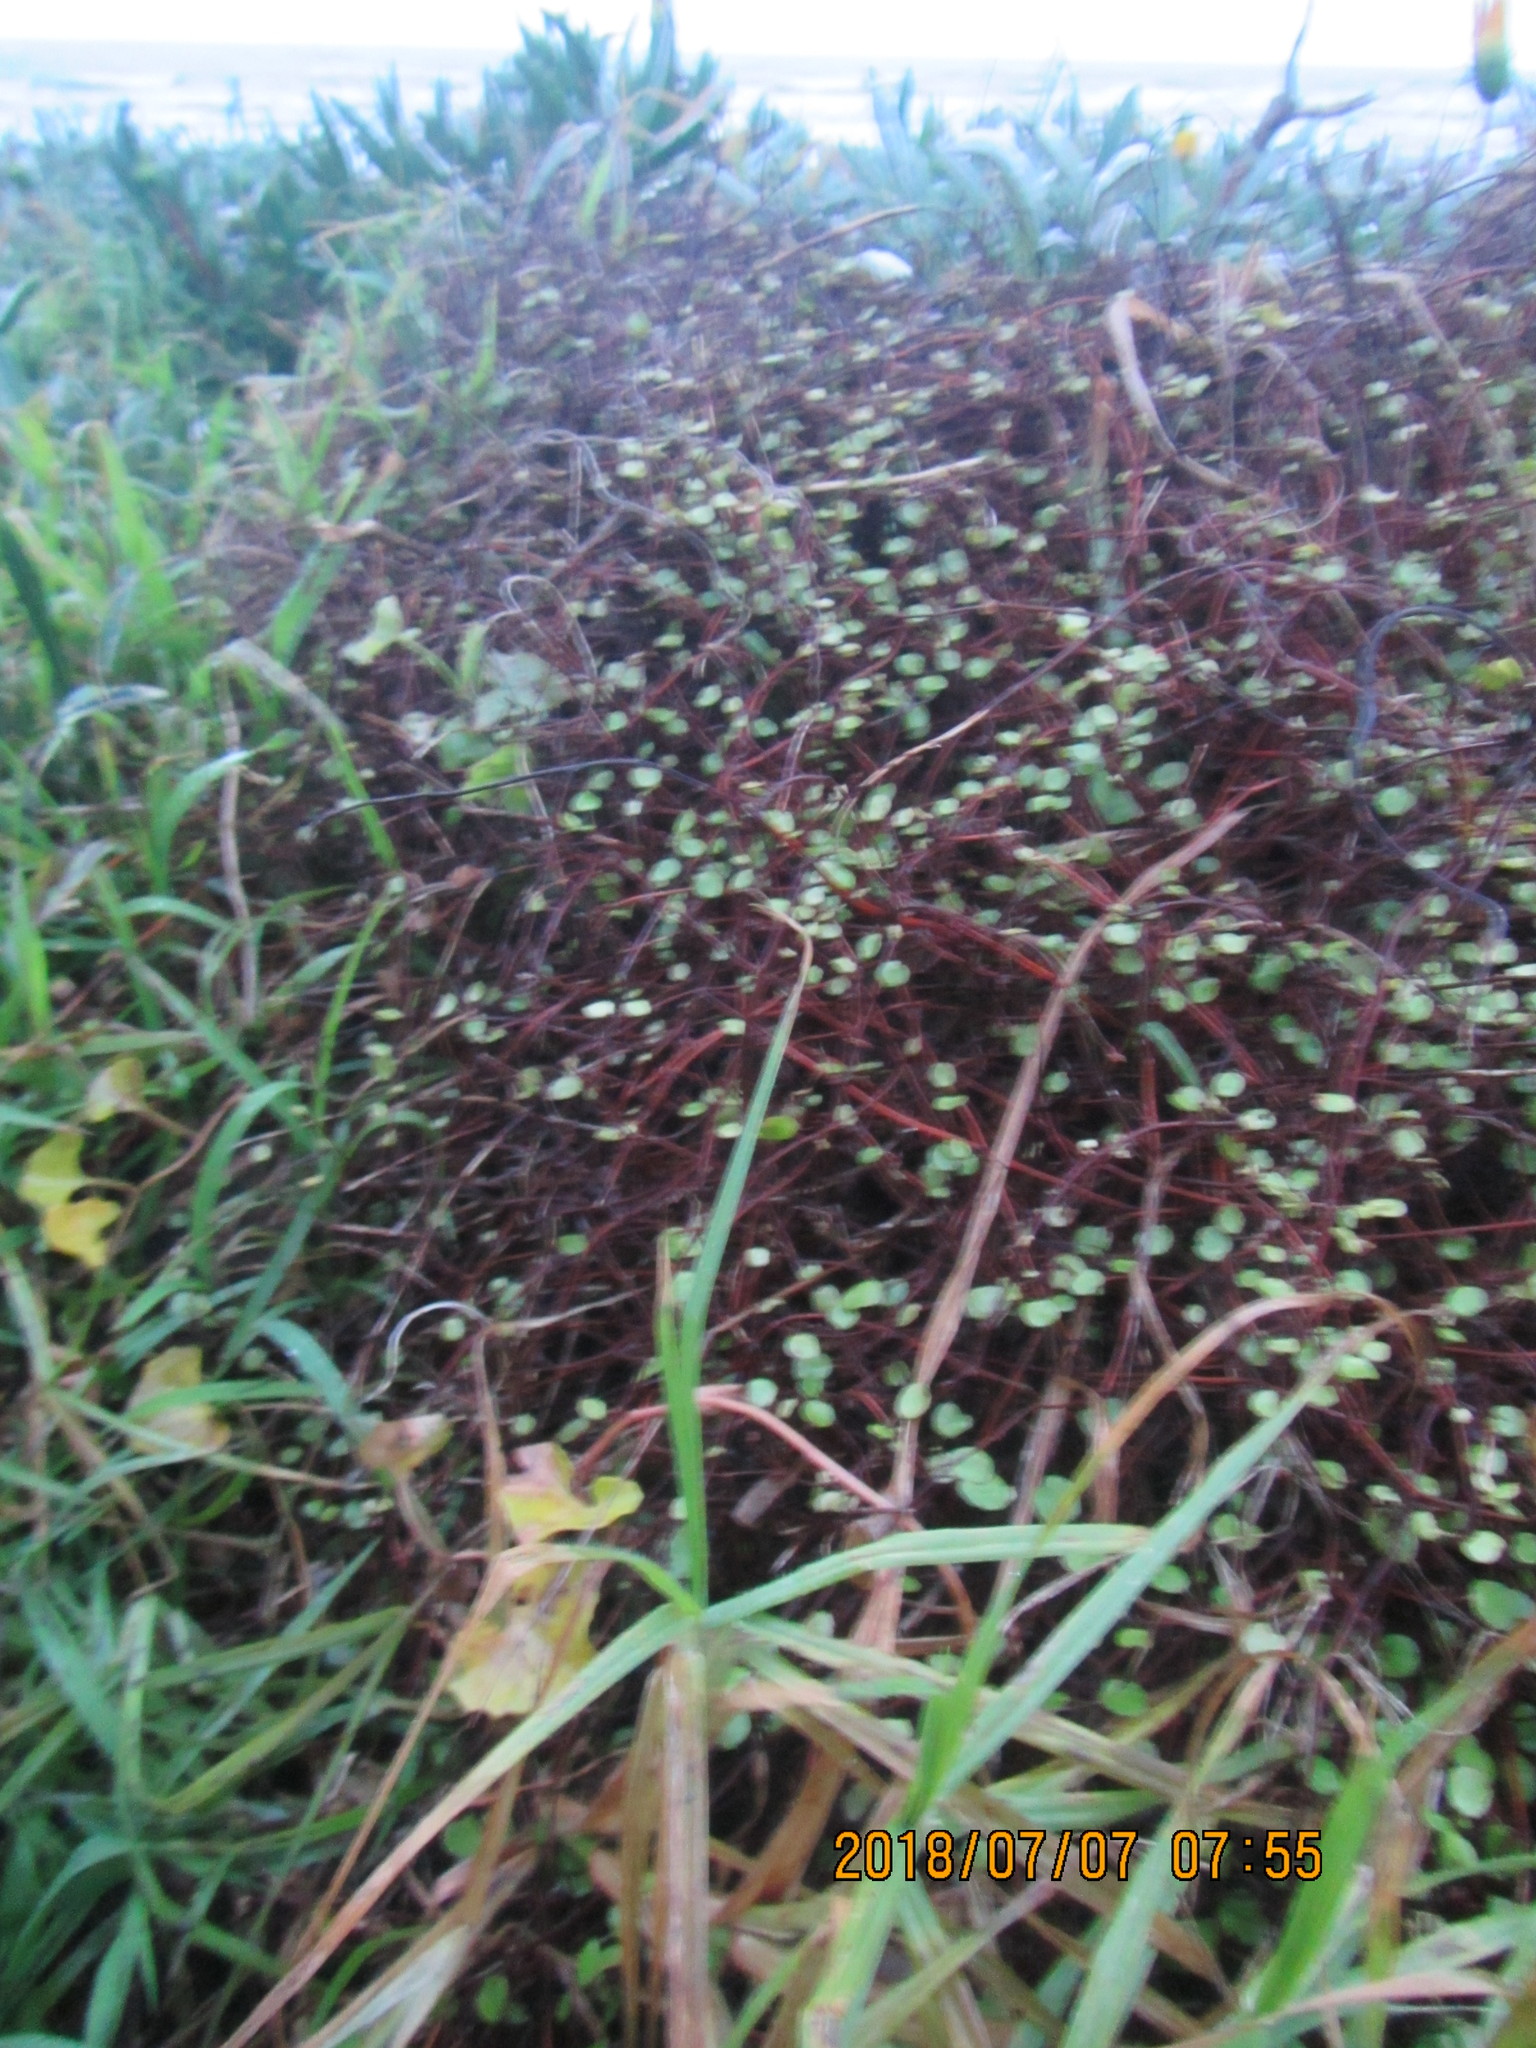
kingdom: Plantae
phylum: Tracheophyta
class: Magnoliopsida
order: Caryophyllales
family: Polygonaceae
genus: Muehlenbeckia
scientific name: Muehlenbeckia complexa
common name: Wireplant
